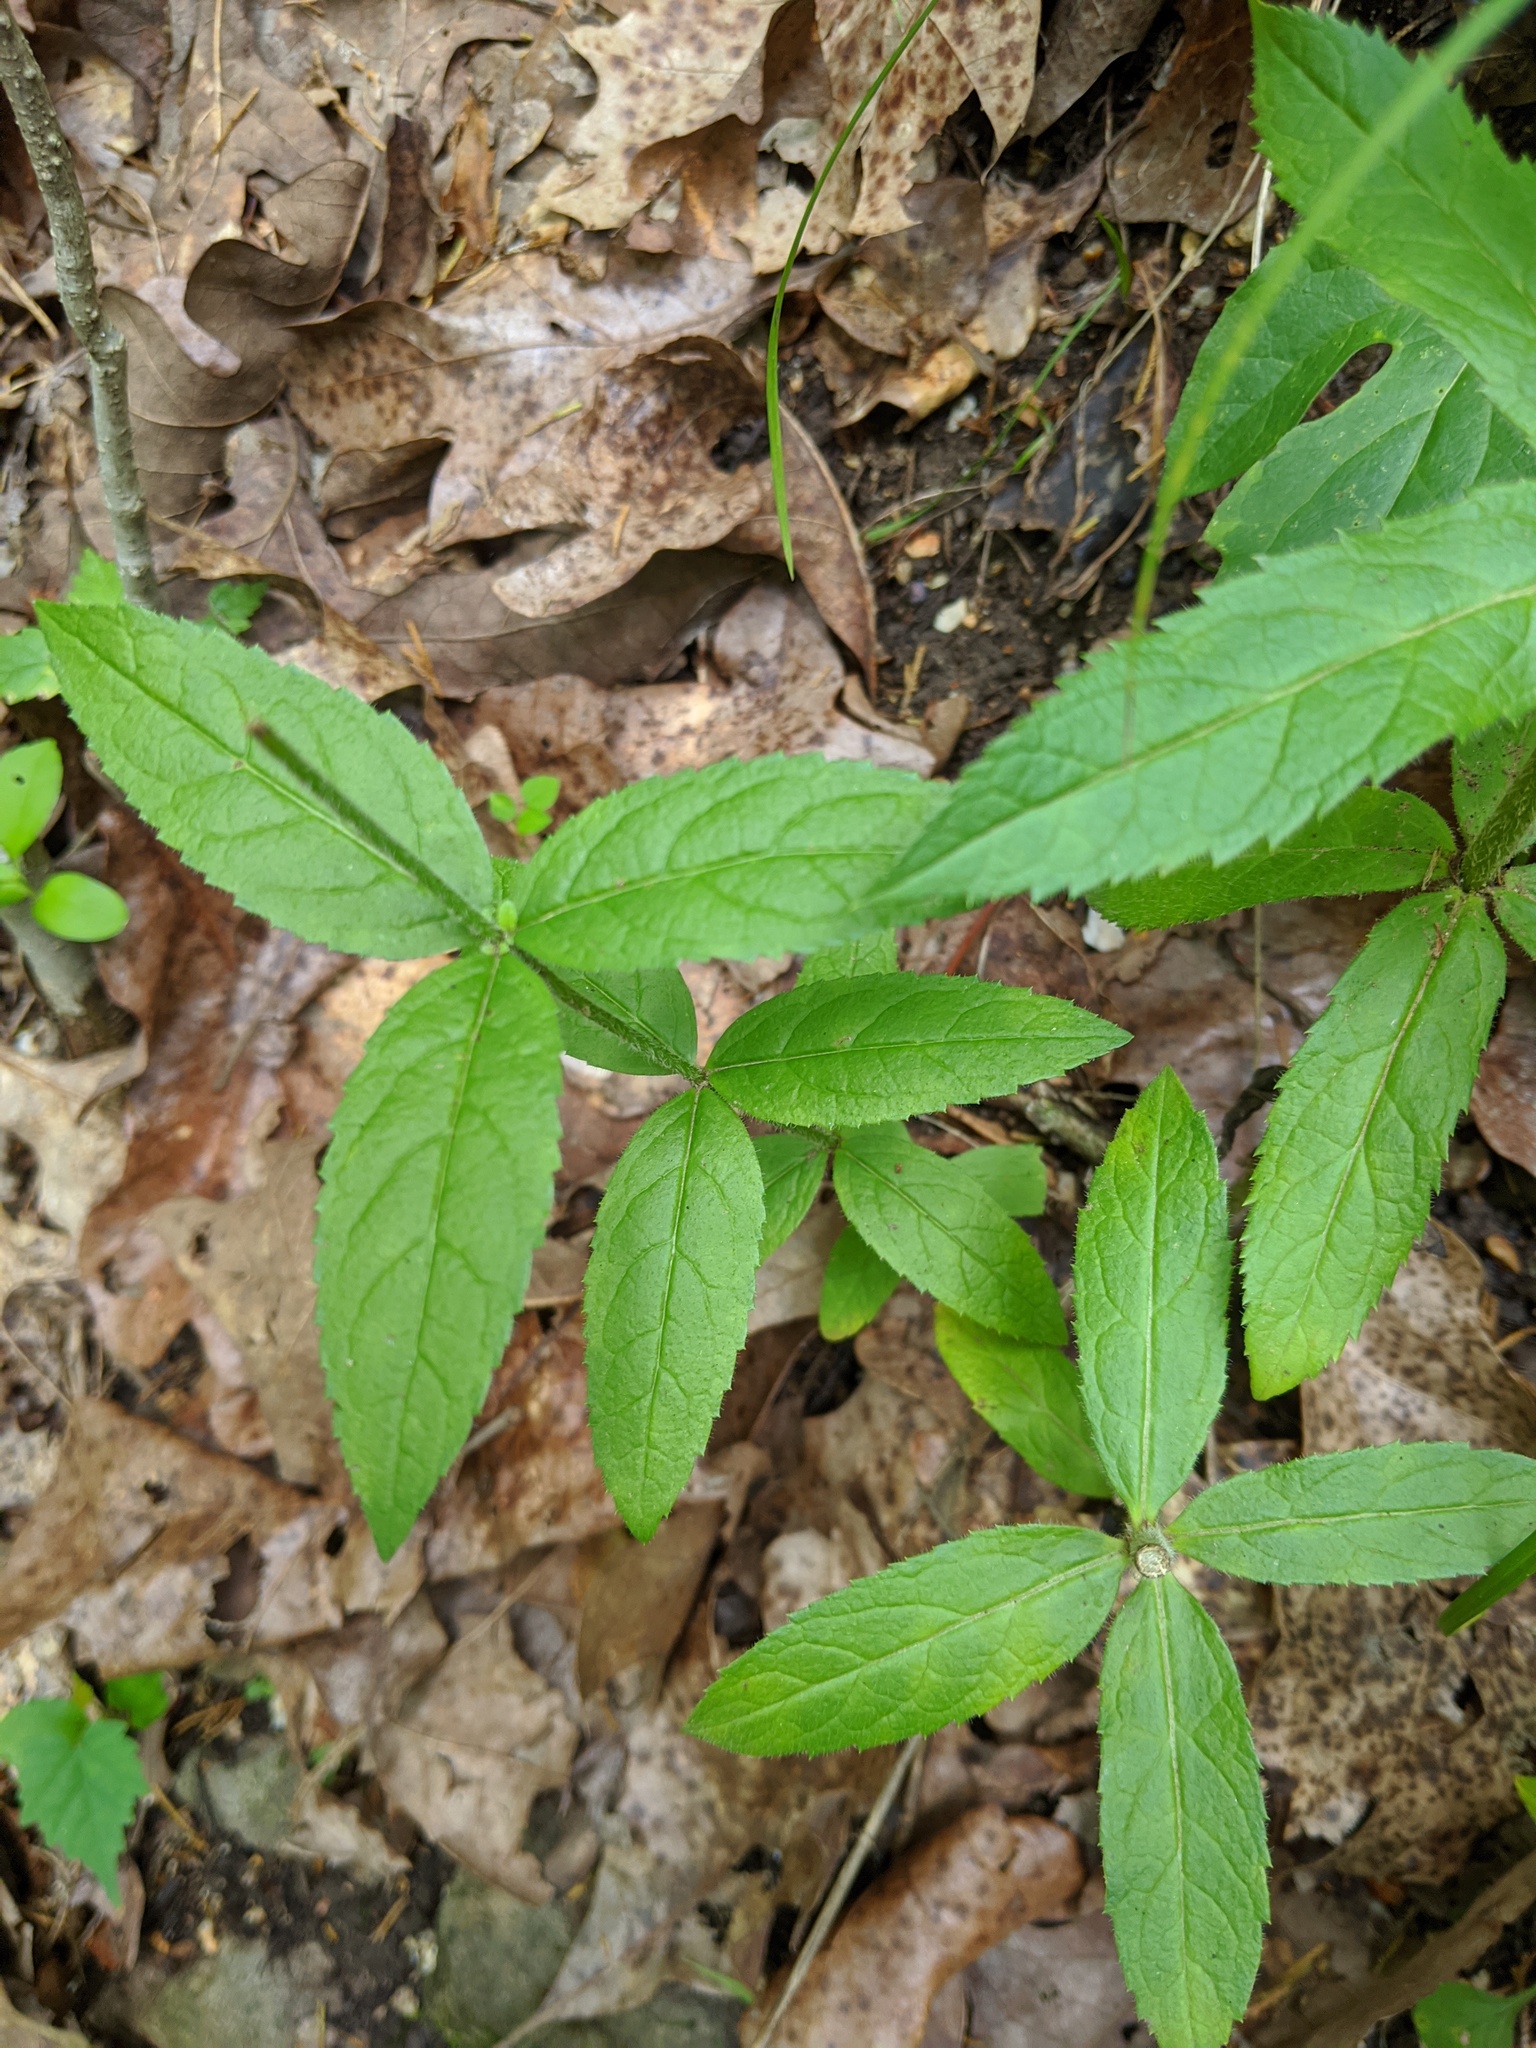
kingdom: Plantae
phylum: Tracheophyta
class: Magnoliopsida
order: Lamiales
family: Plantaginaceae
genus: Veronicastrum
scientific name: Veronicastrum virginicum
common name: Blackroot
